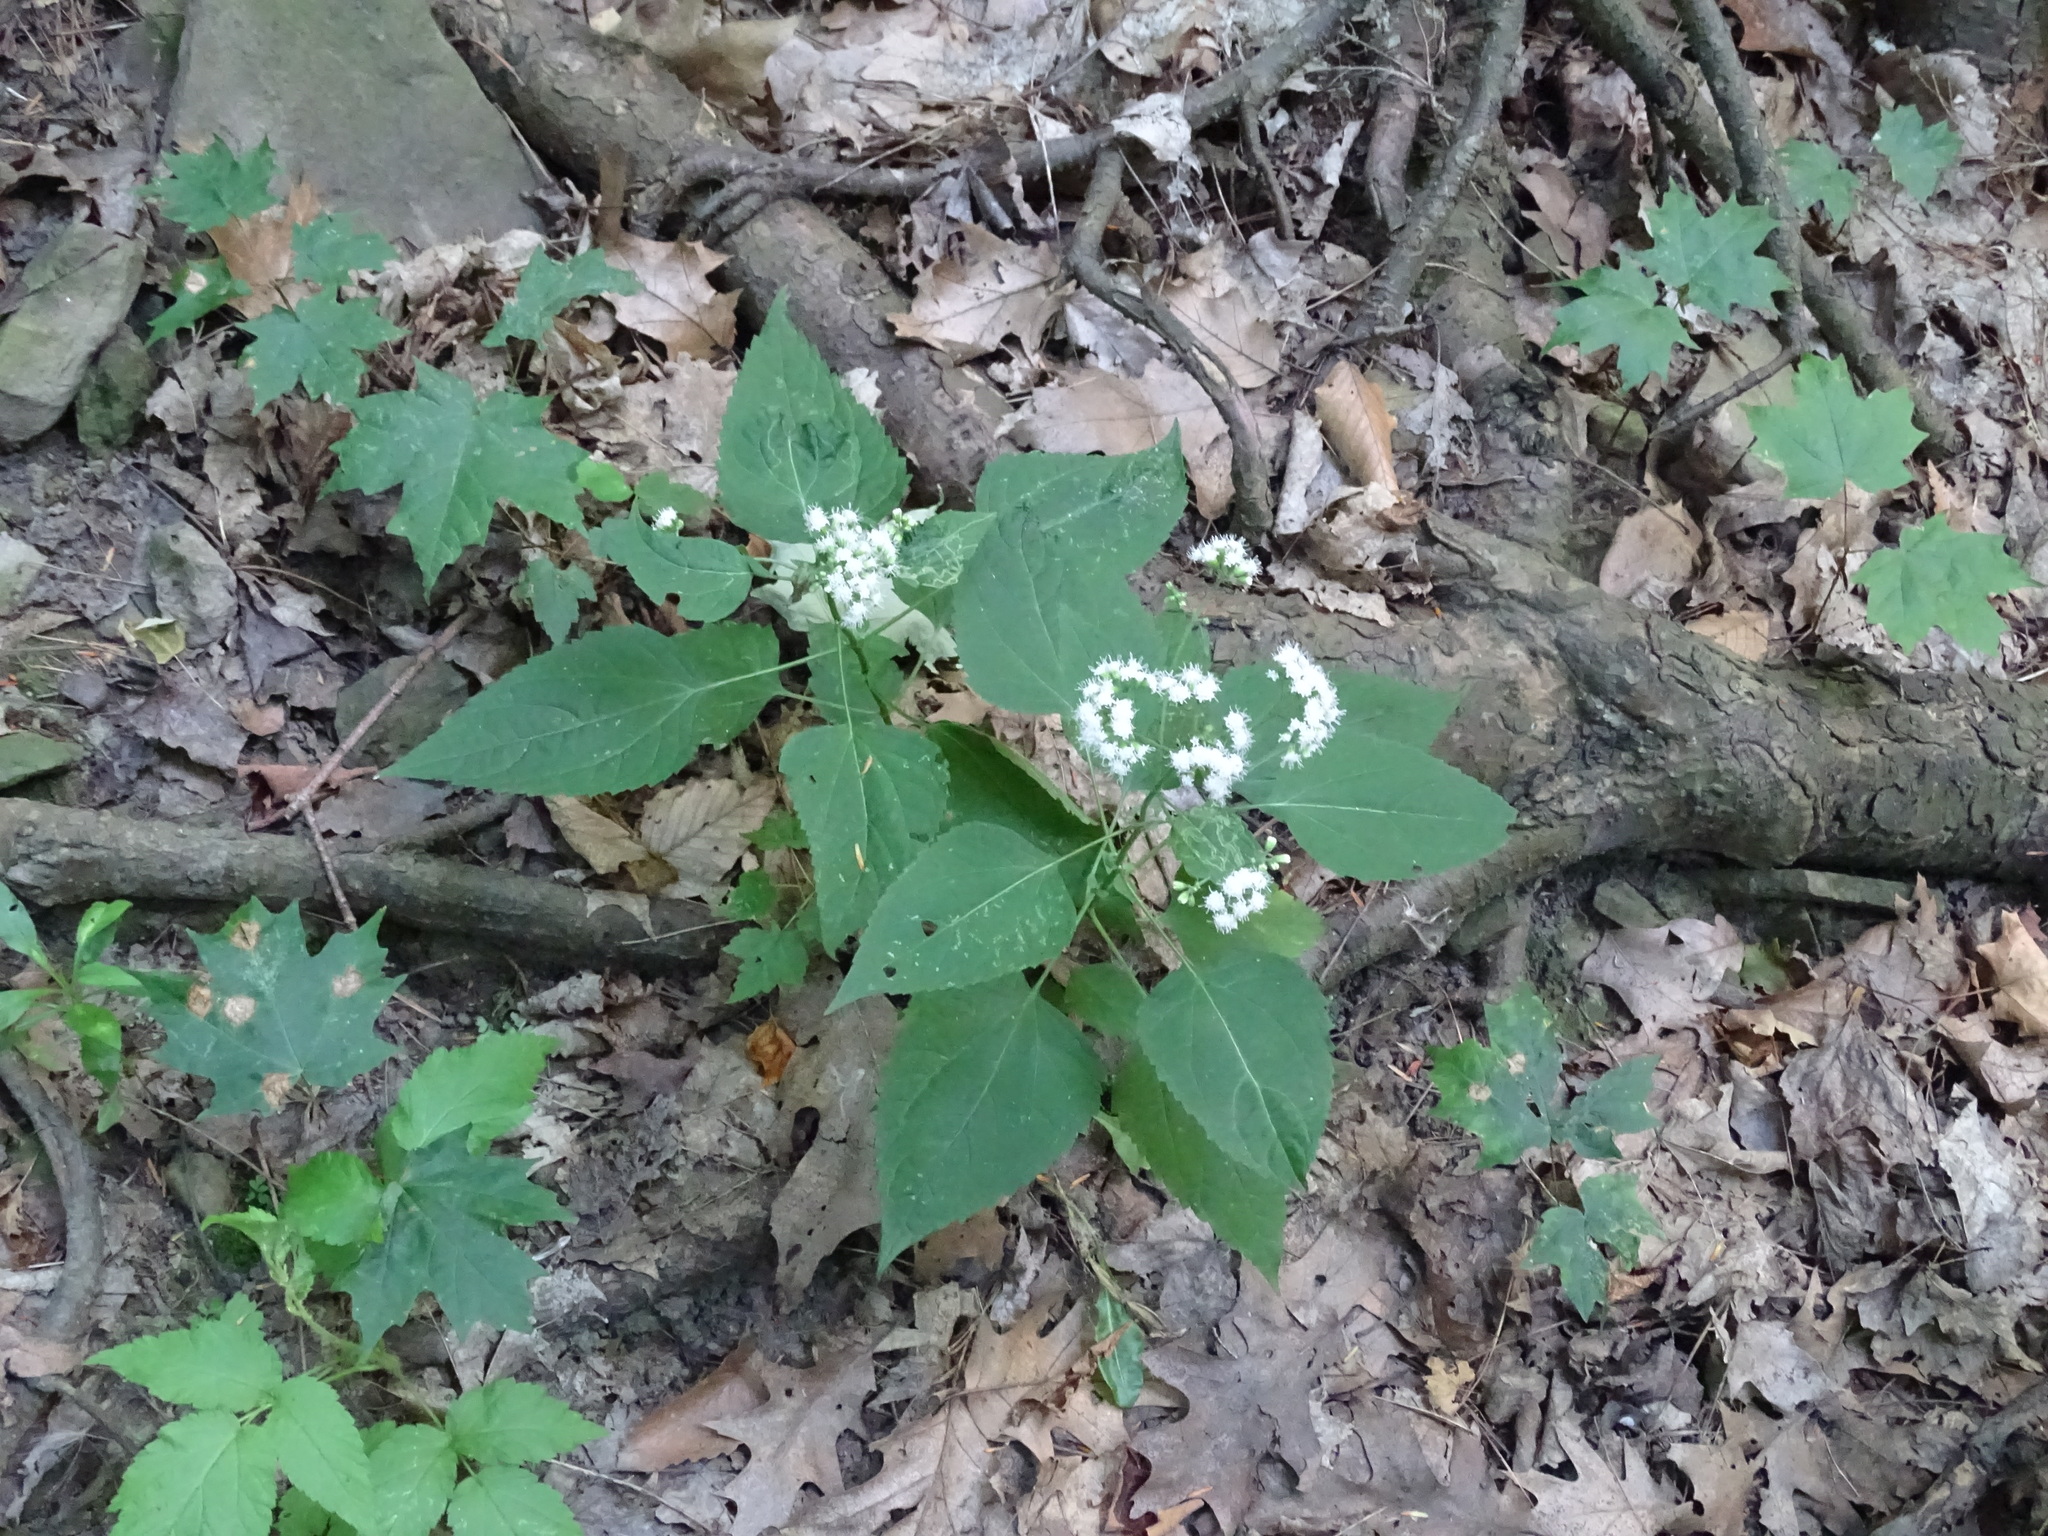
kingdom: Plantae
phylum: Tracheophyta
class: Magnoliopsida
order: Asterales
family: Asteraceae
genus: Ageratina
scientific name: Ageratina altissima
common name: White snakeroot
